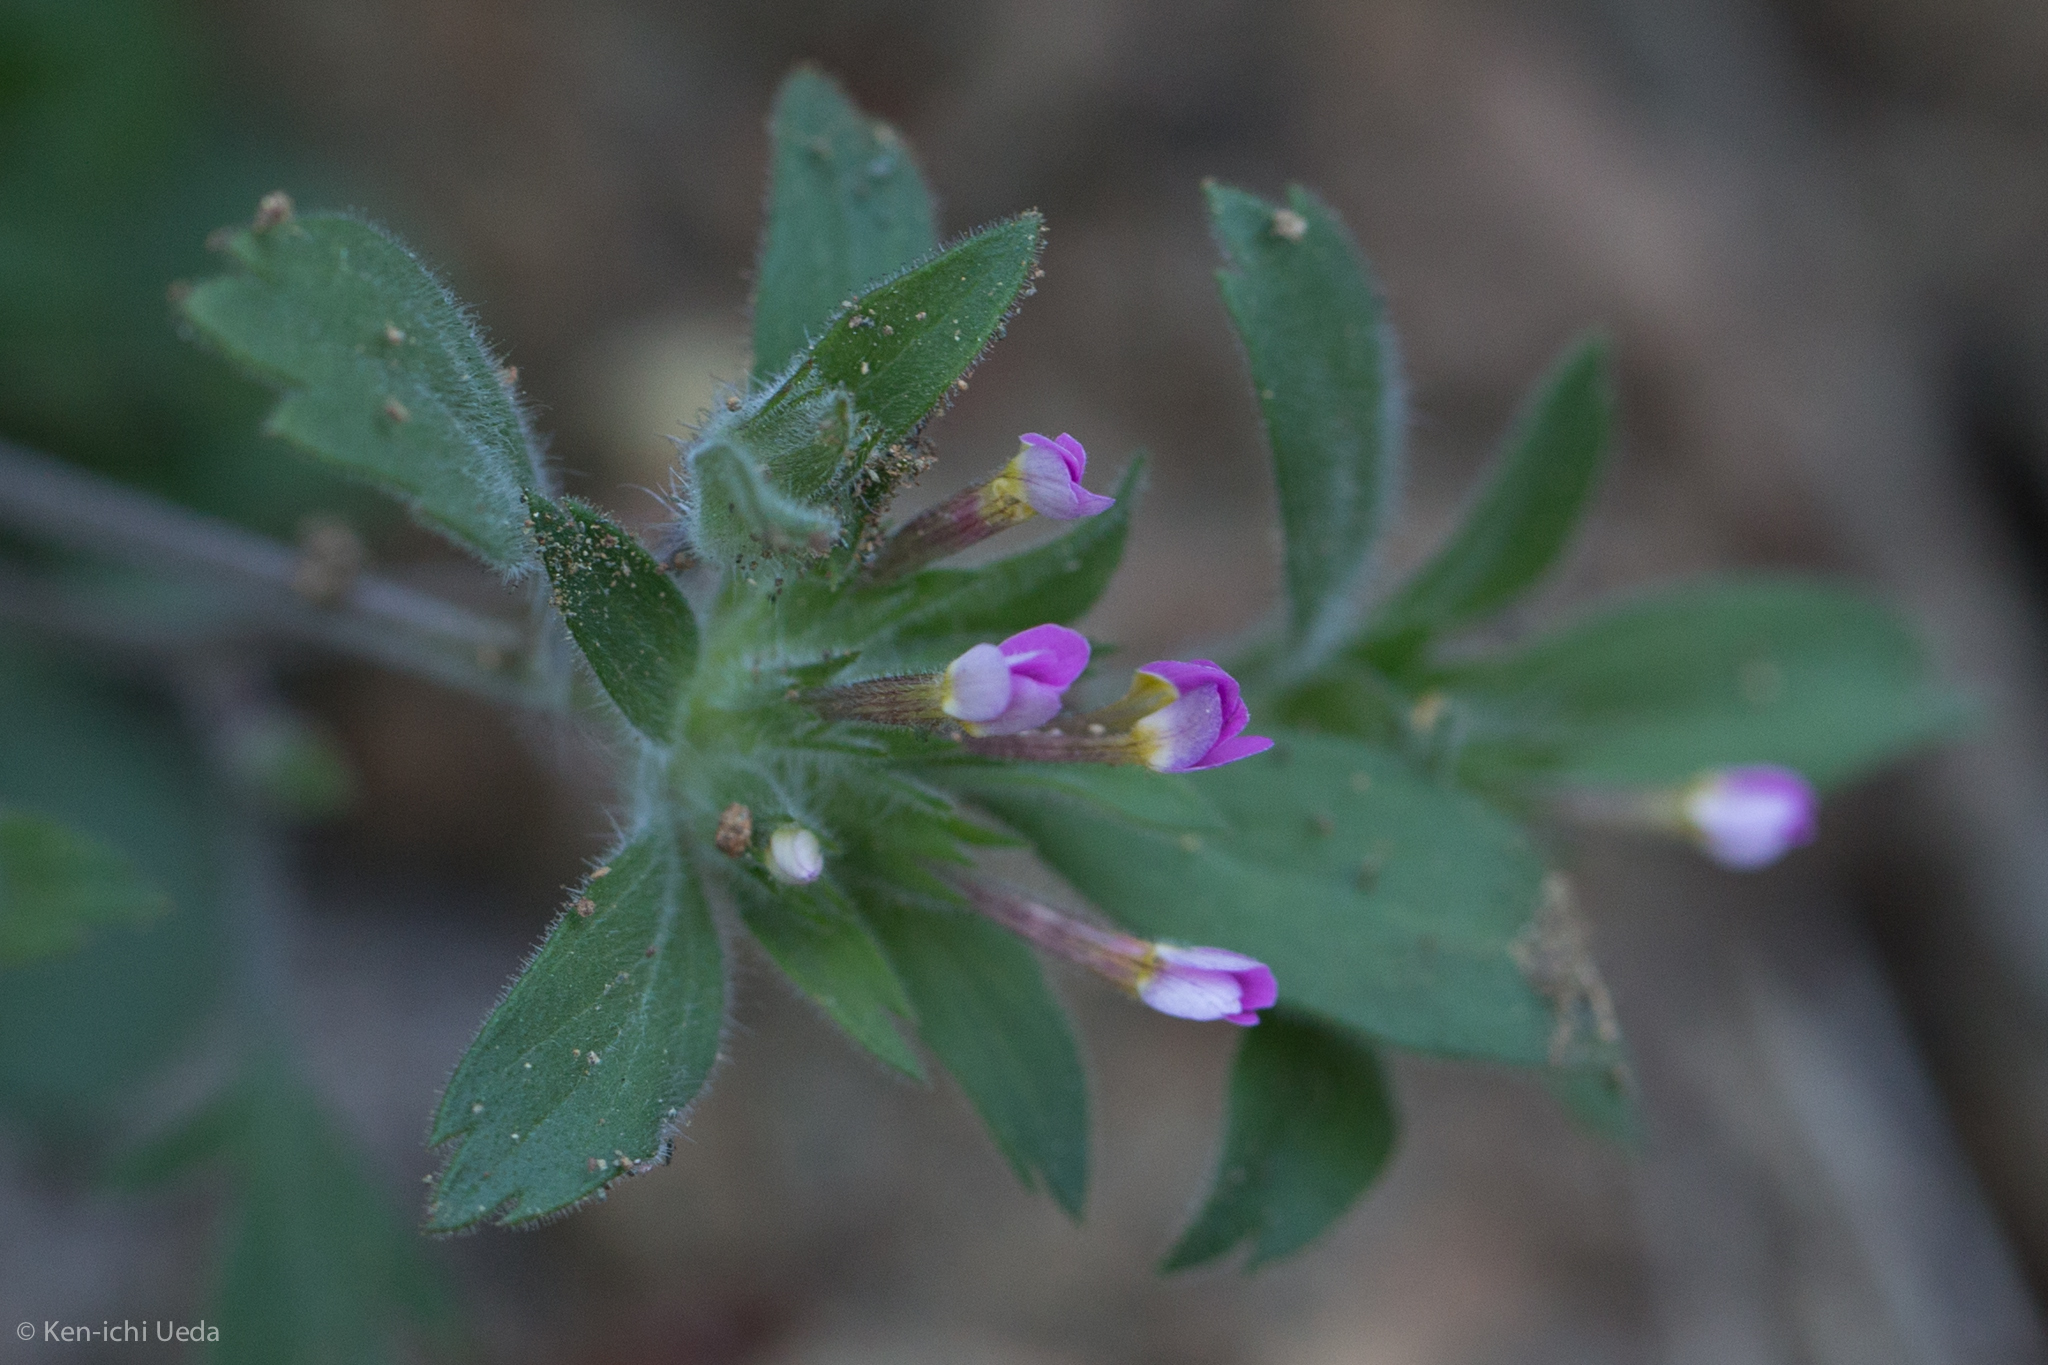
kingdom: Plantae
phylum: Tracheophyta
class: Magnoliopsida
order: Ericales
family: Polemoniaceae
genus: Collomia
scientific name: Collomia heterophylla
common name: Variable-leaved collomia
